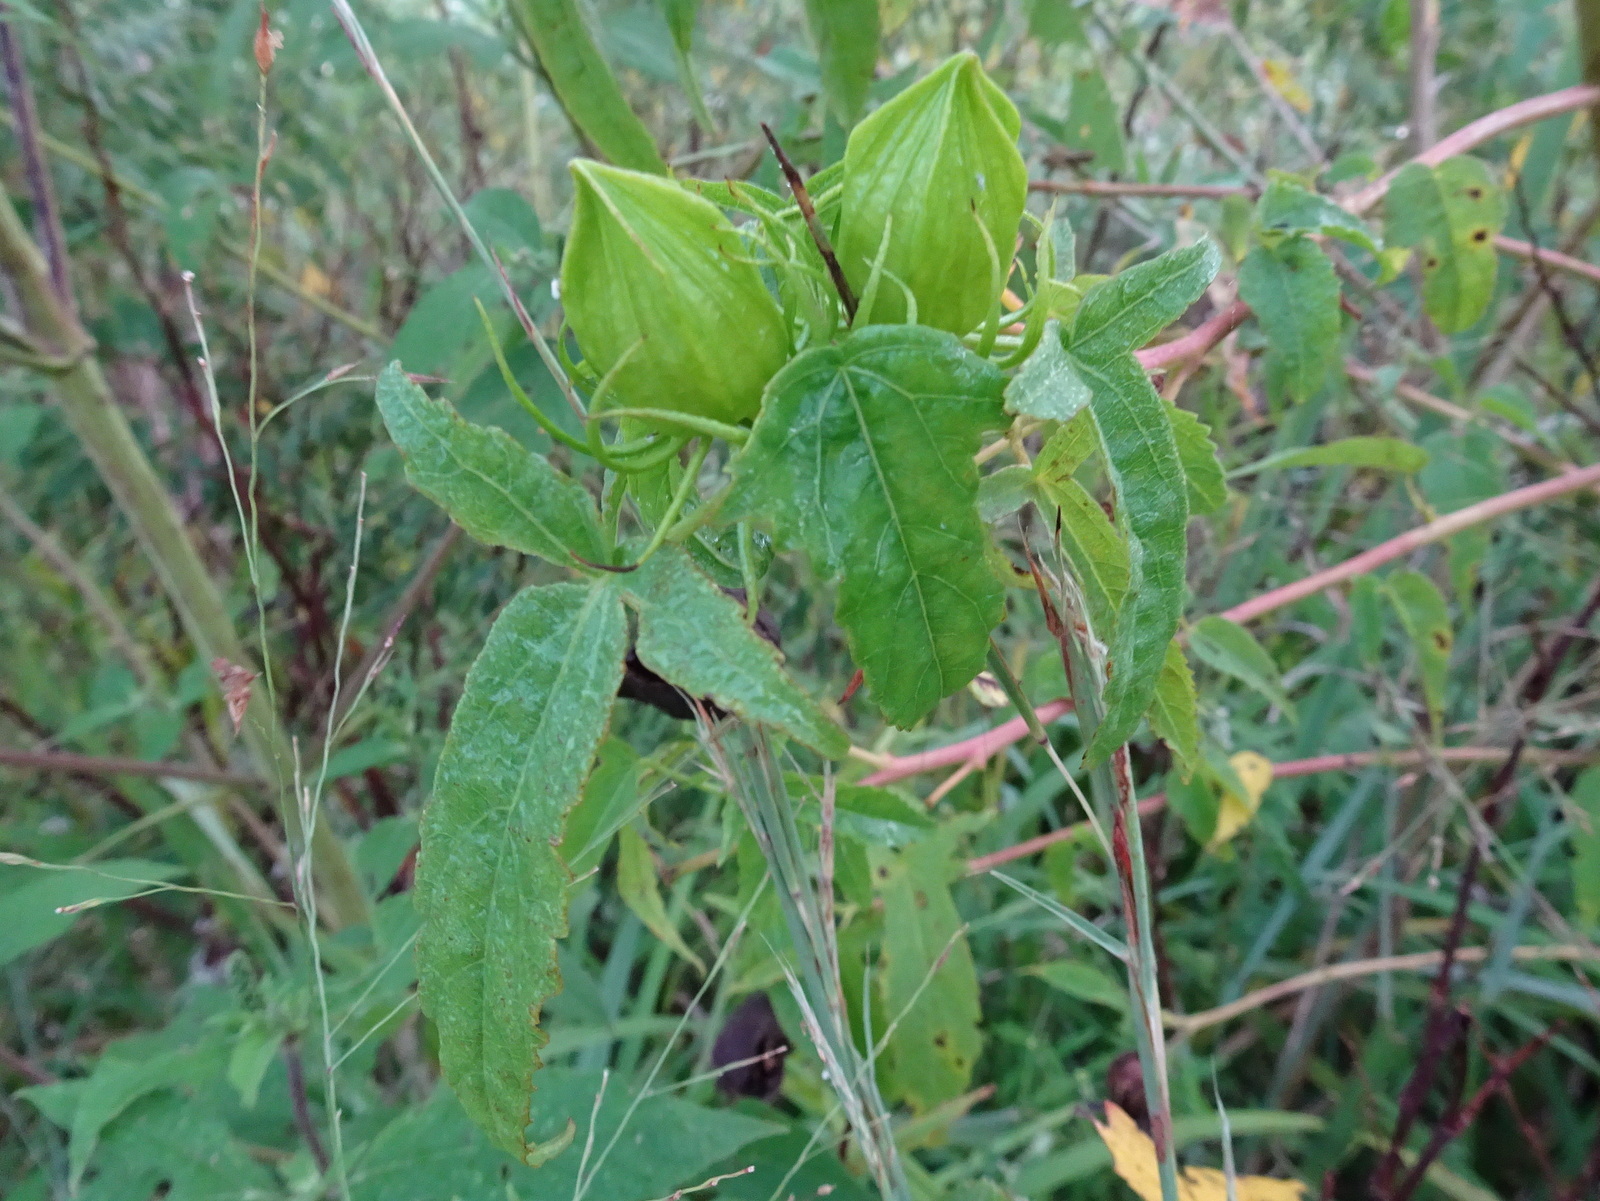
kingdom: Plantae
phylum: Tracheophyta
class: Magnoliopsida
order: Malvales
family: Malvaceae
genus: Hibiscus
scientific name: Hibiscus laevis
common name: Scarlet rose-mallow
